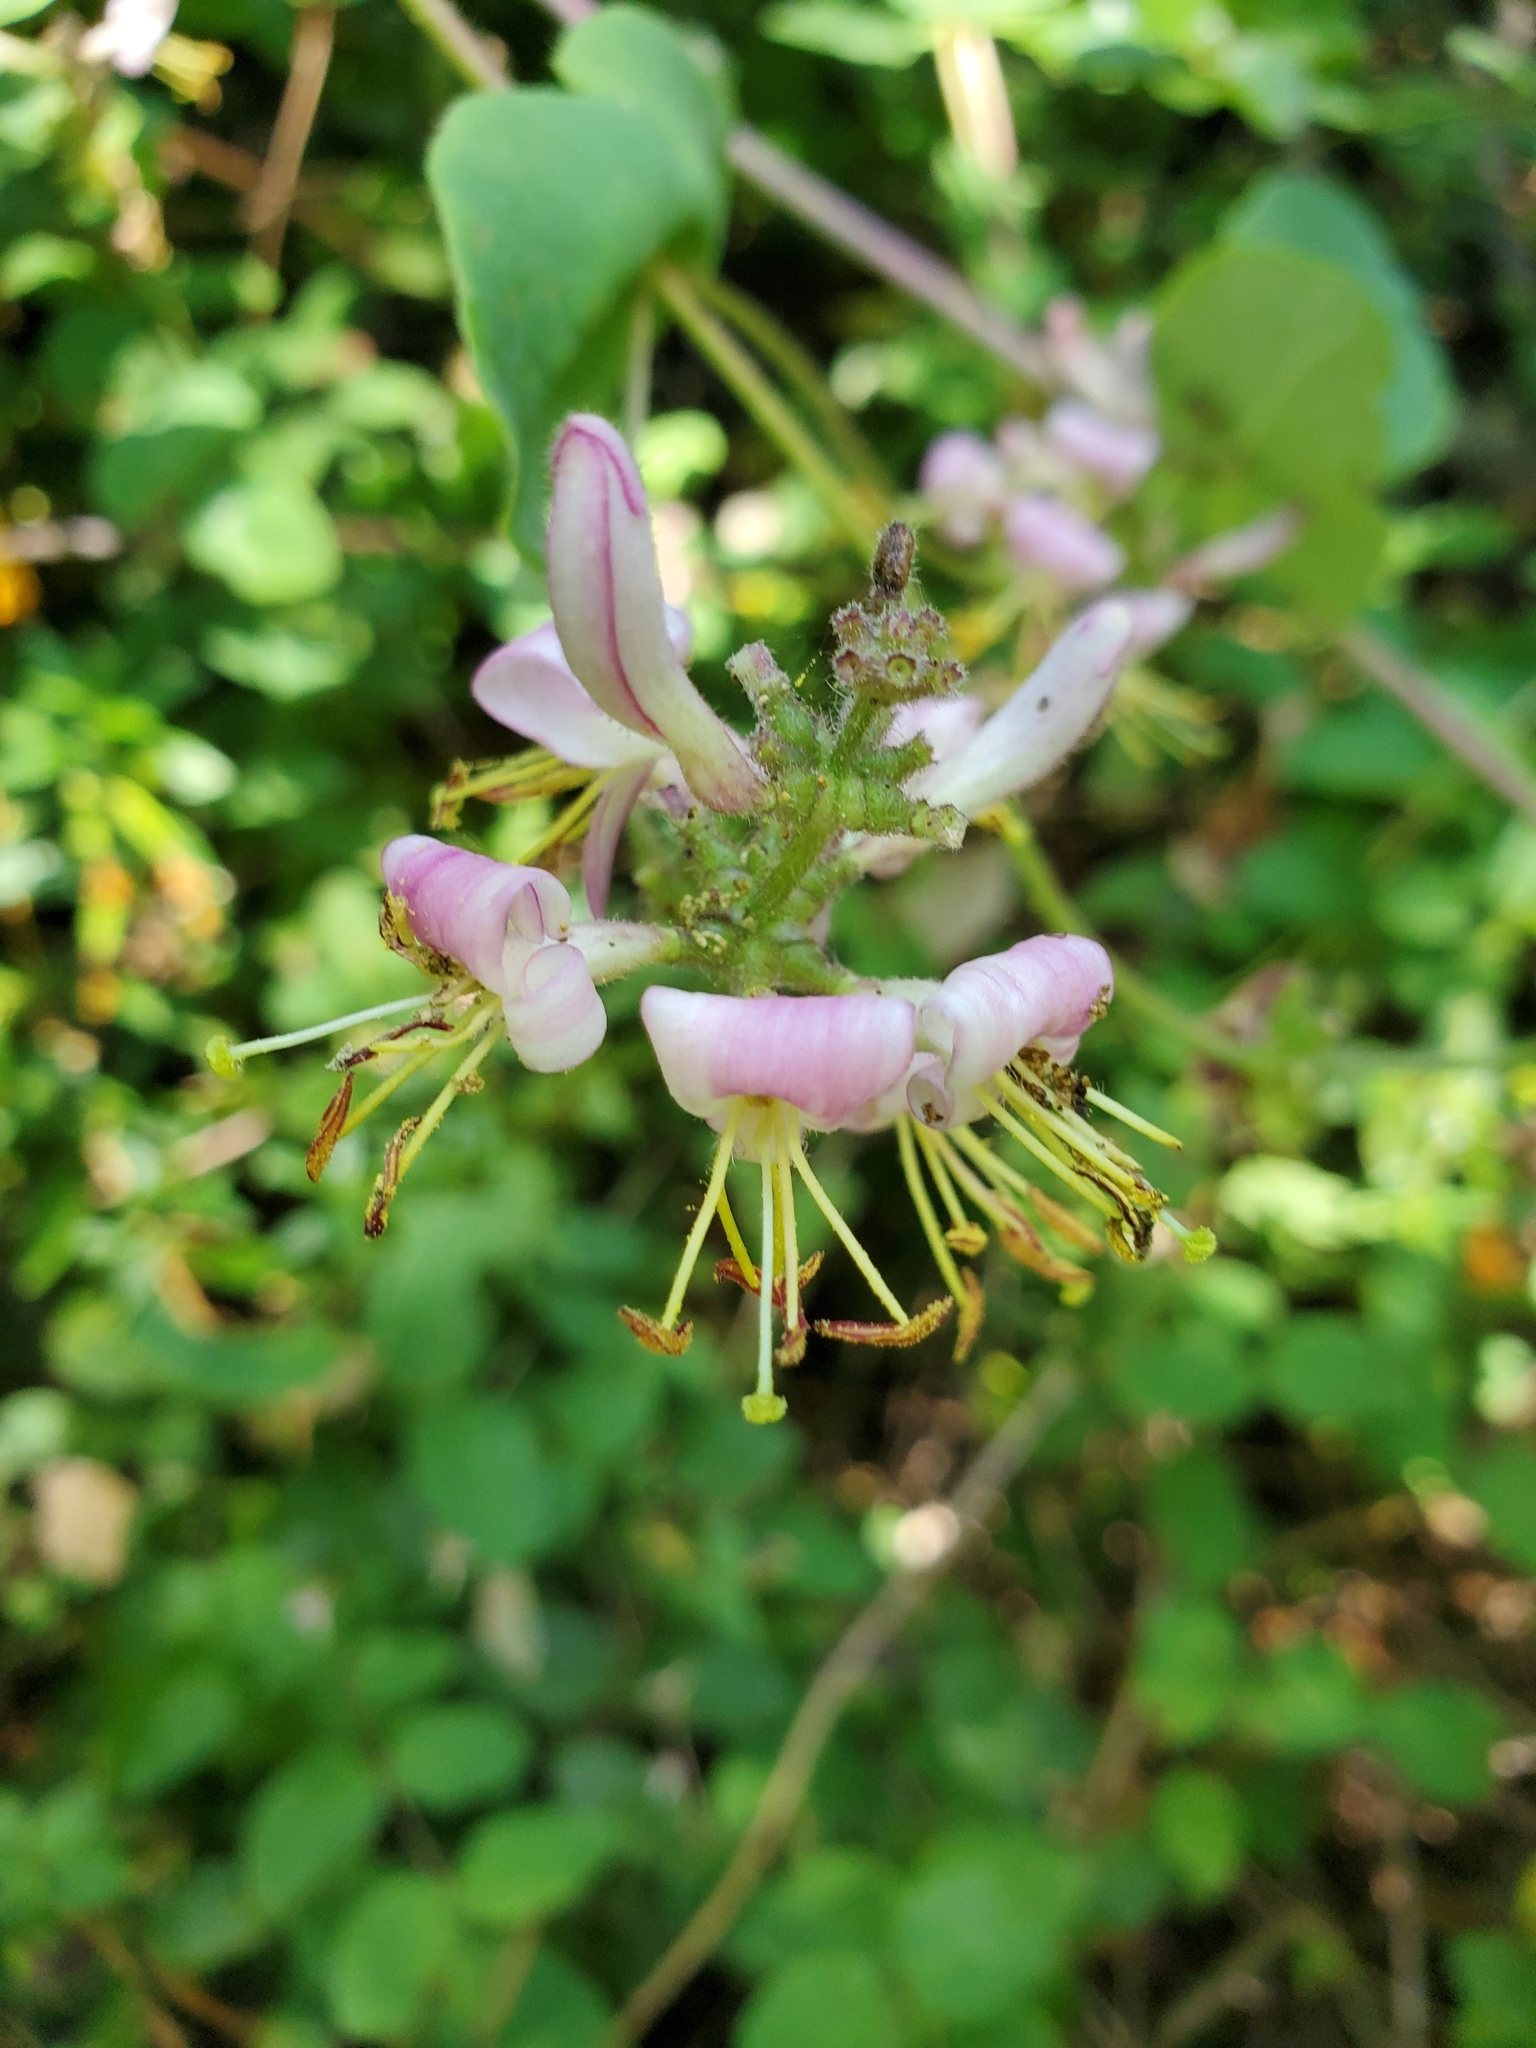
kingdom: Plantae
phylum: Tracheophyta
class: Magnoliopsida
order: Dipsacales
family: Caprifoliaceae
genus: Lonicera
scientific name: Lonicera hispidula
